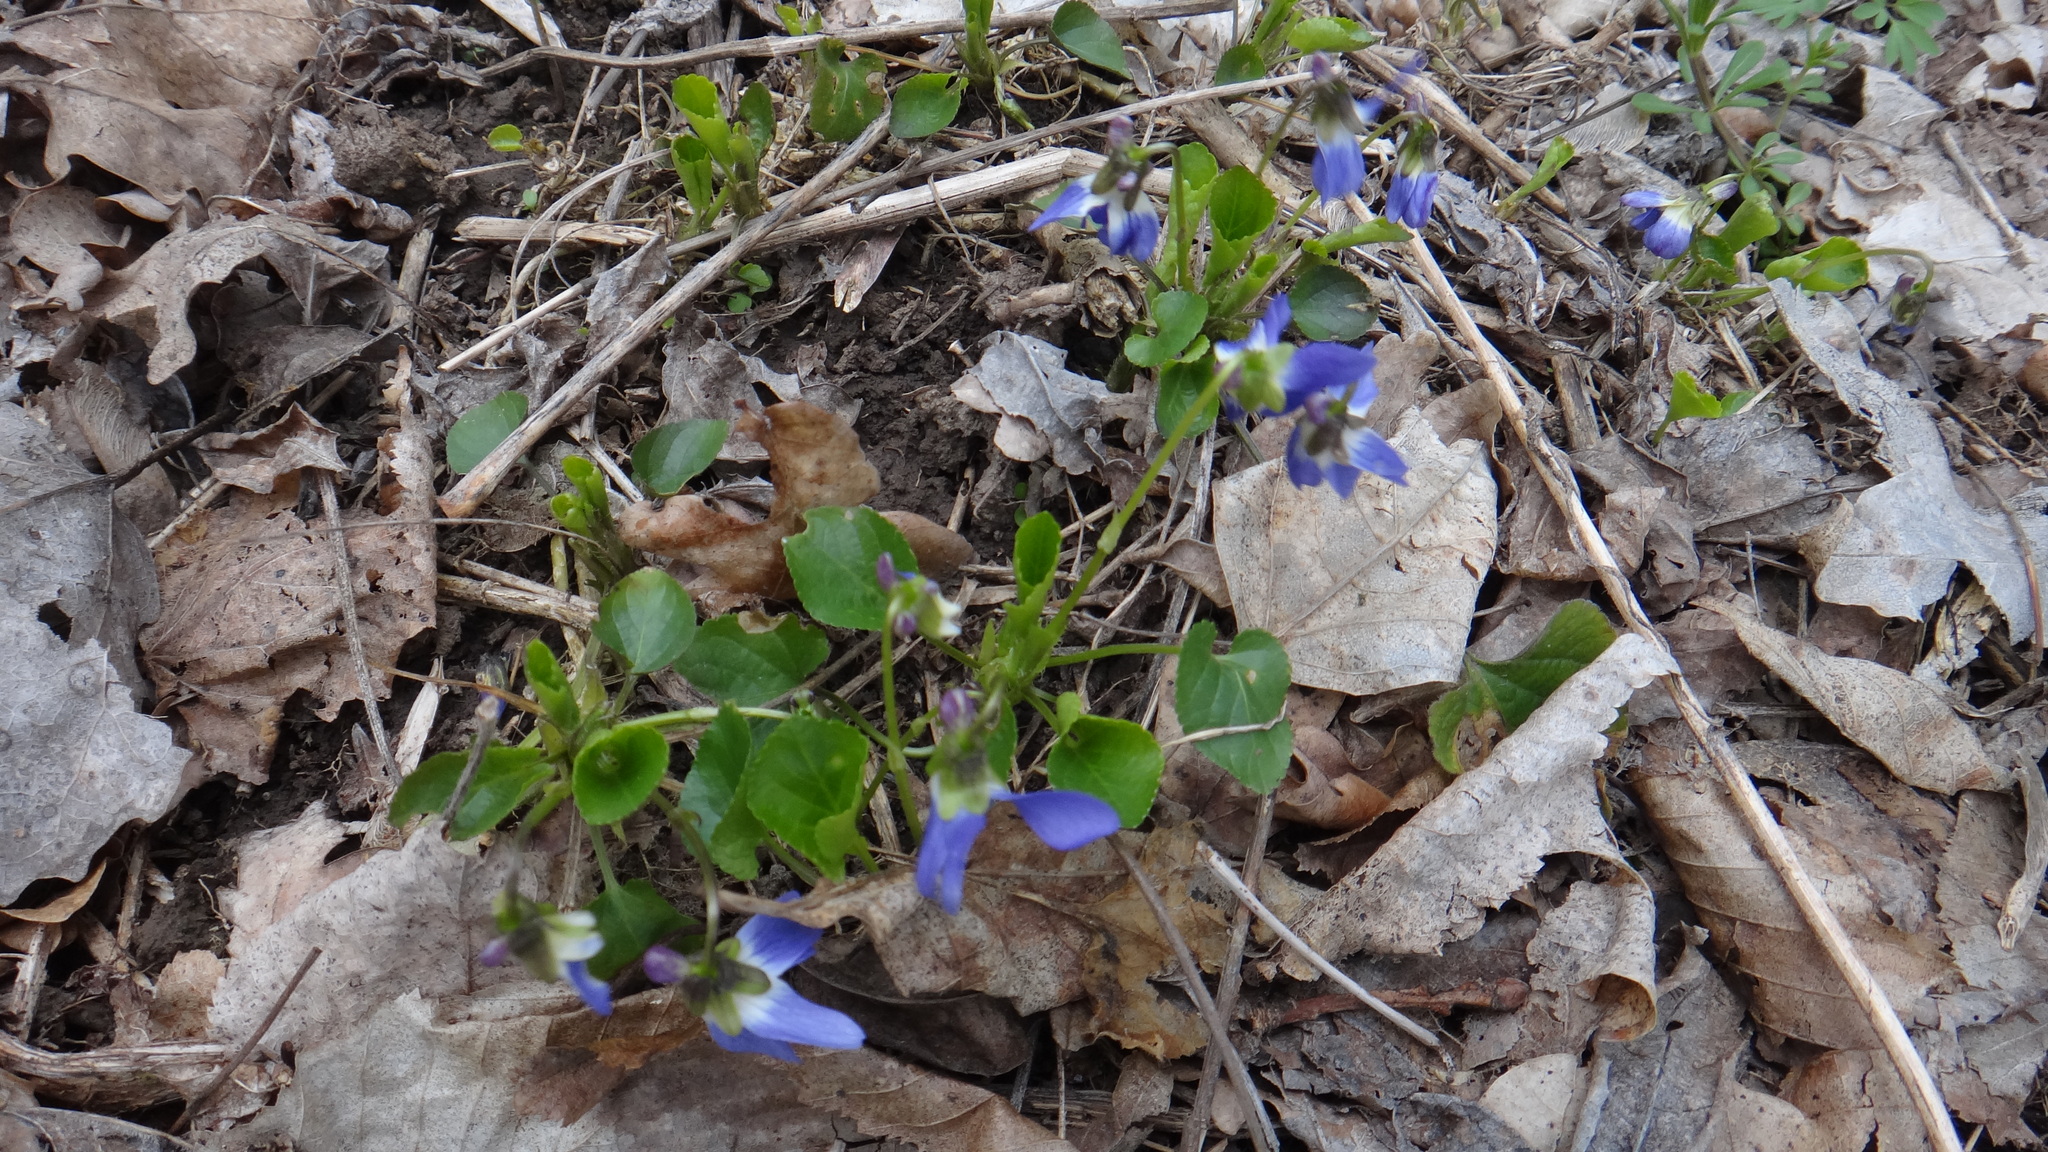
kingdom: Plantae
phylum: Tracheophyta
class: Magnoliopsida
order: Malpighiales
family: Violaceae
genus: Viola
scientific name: Viola suavis
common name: Russian violet
